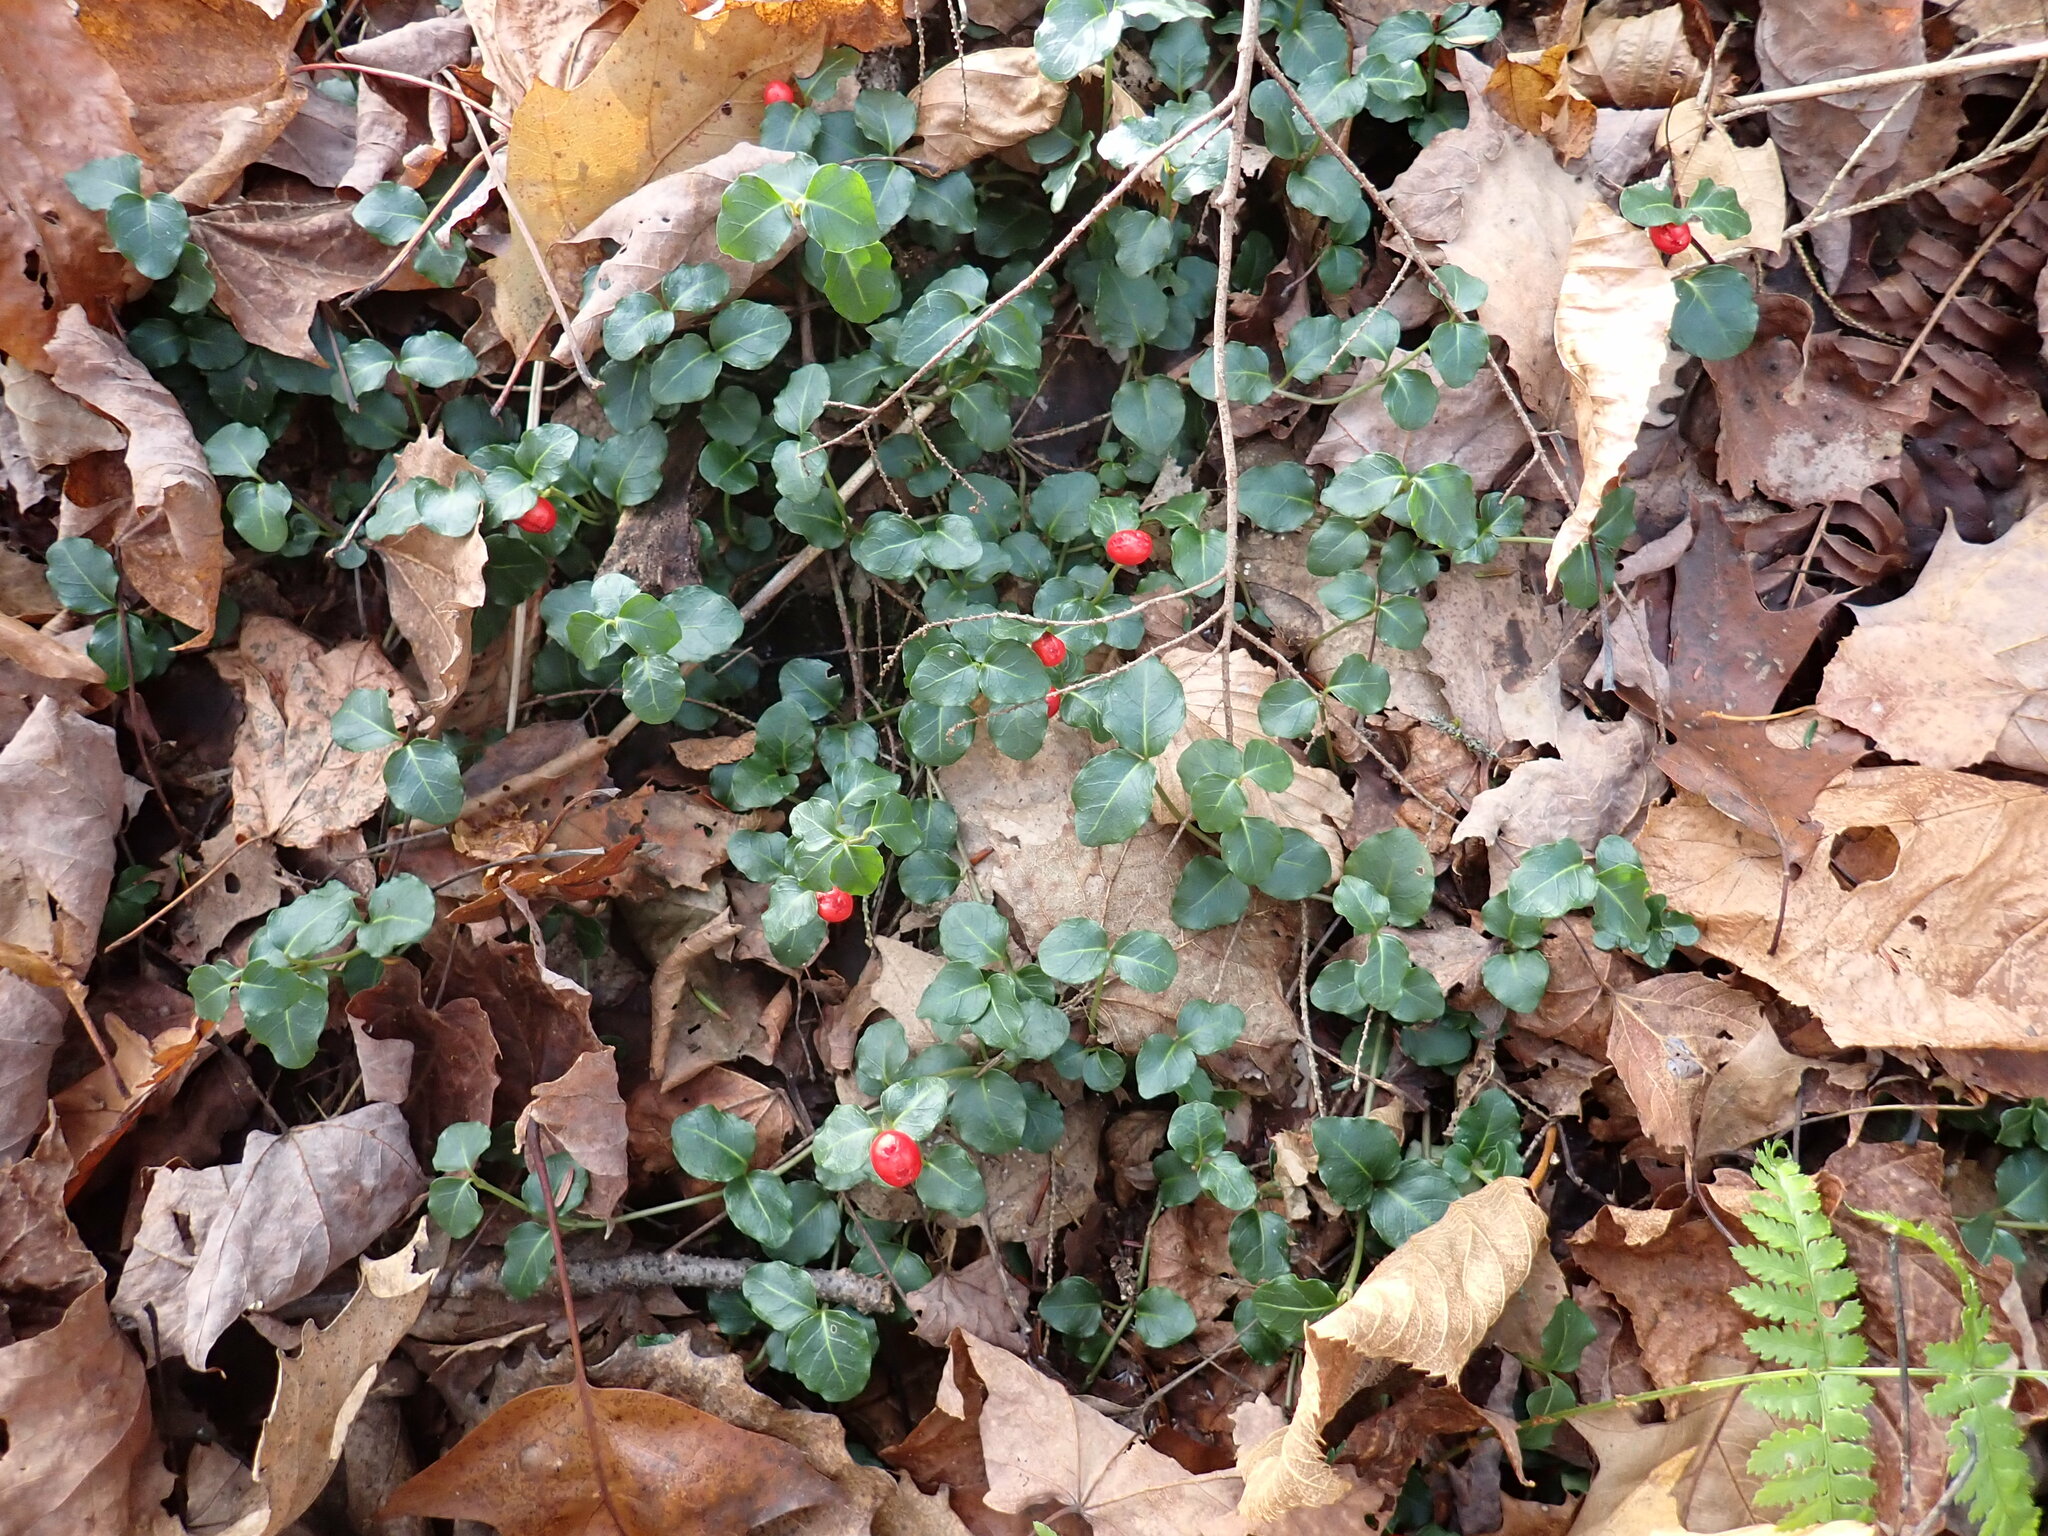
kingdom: Plantae
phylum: Tracheophyta
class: Magnoliopsida
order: Gentianales
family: Rubiaceae
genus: Mitchella
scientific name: Mitchella repens
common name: Partridge-berry
